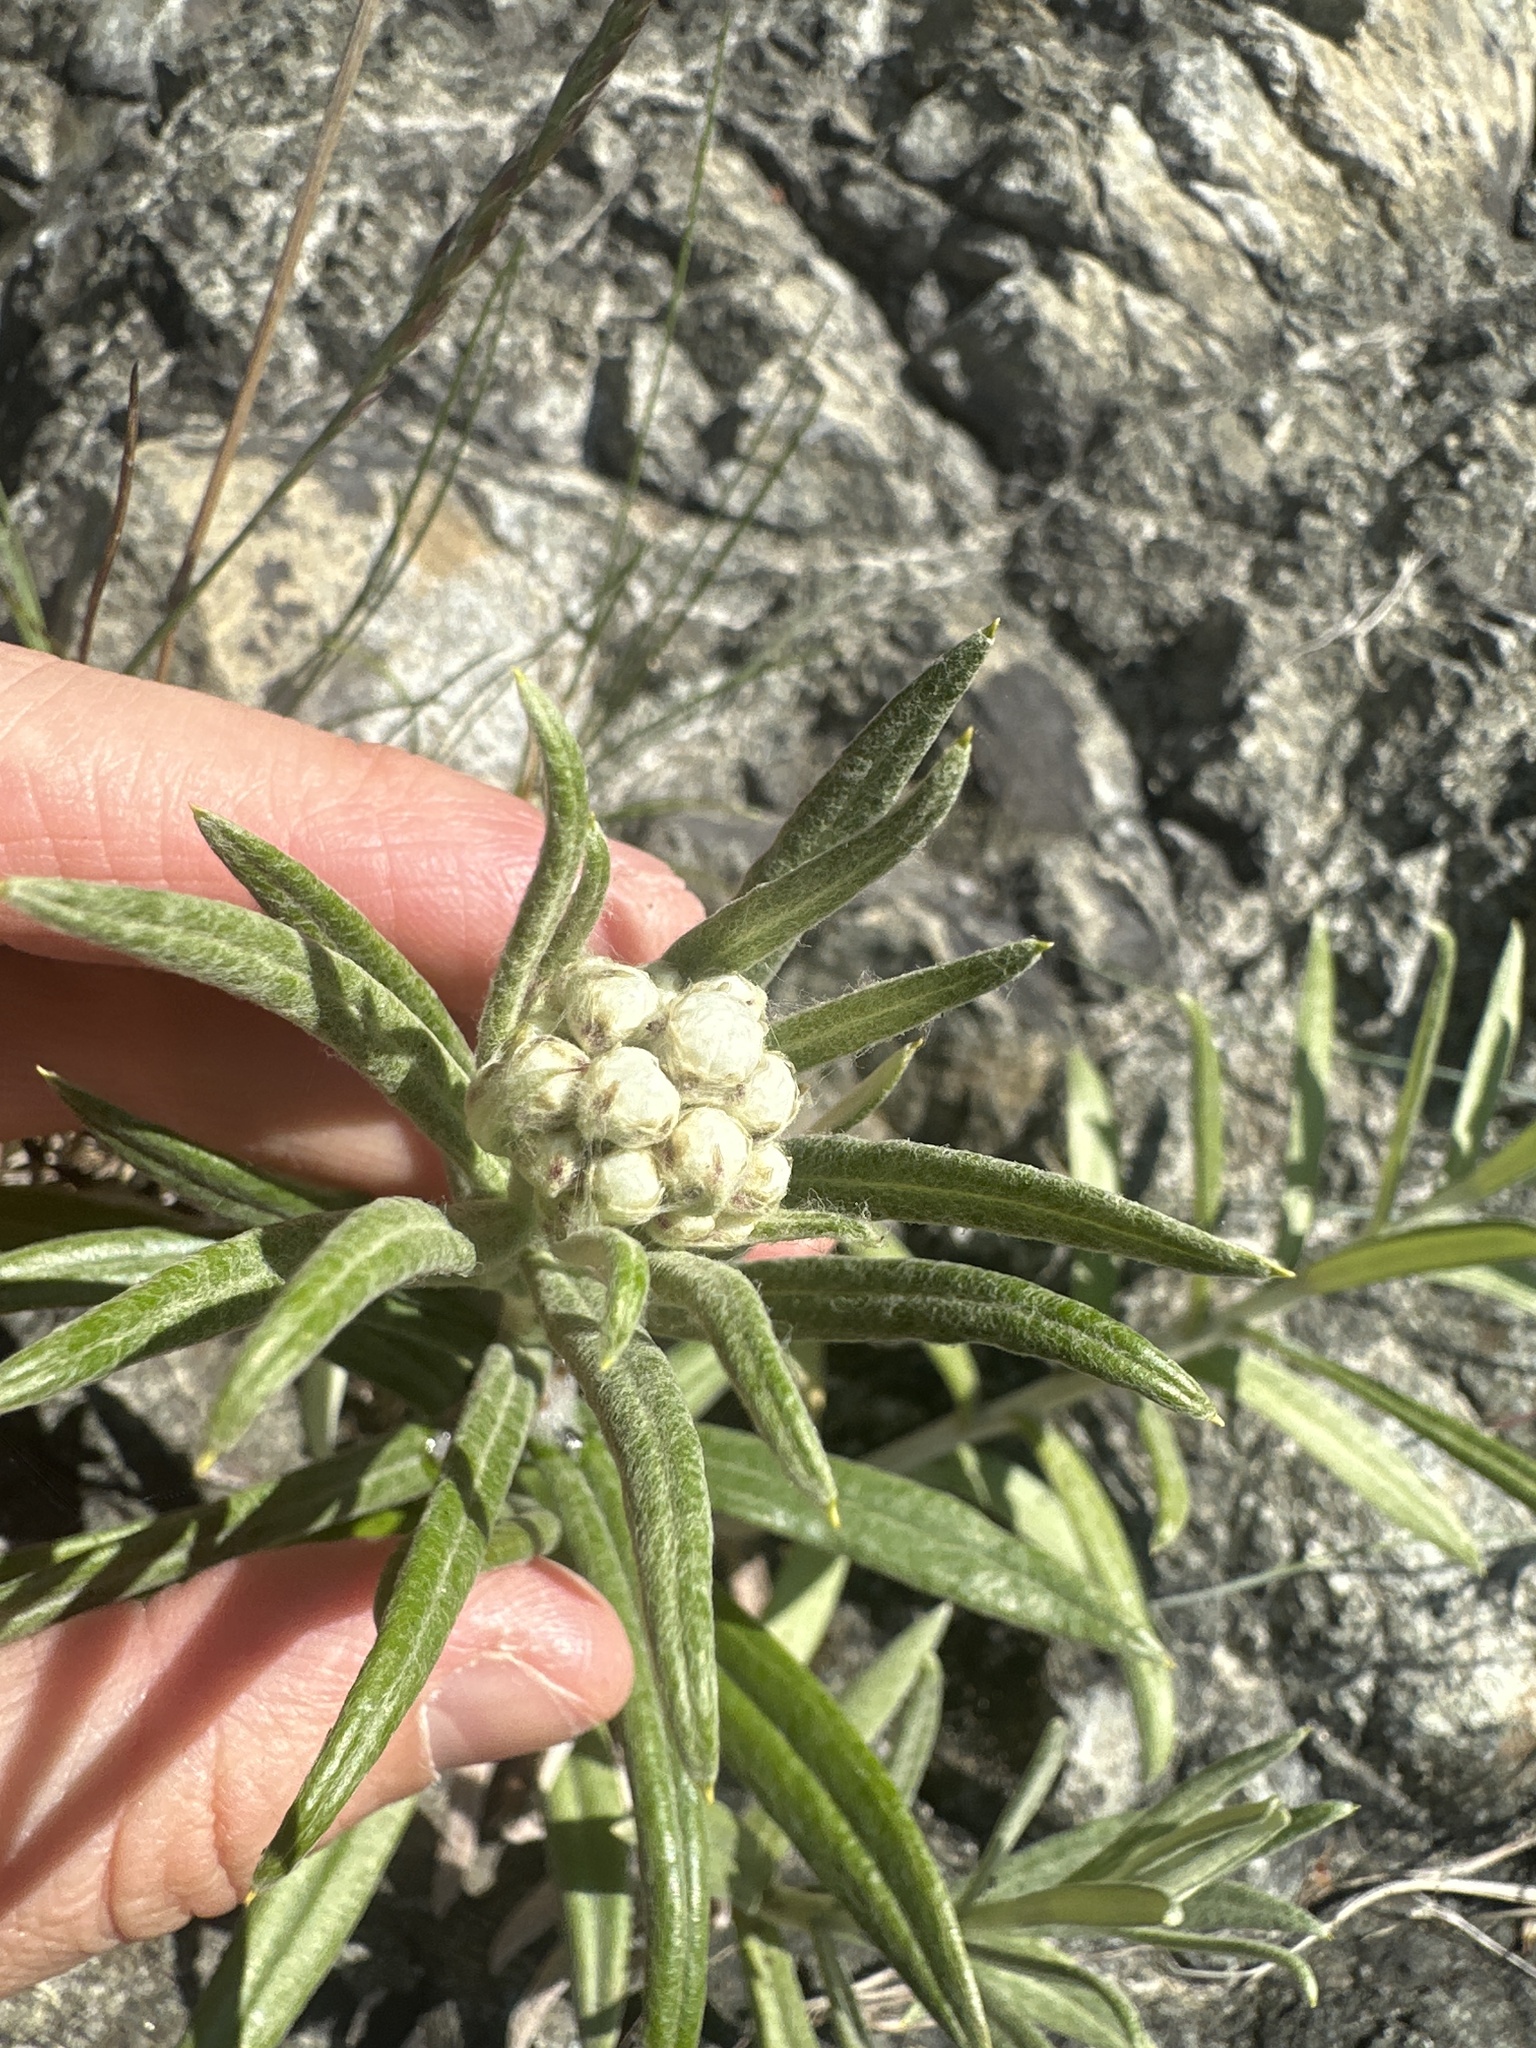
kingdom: Plantae
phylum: Tracheophyta
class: Magnoliopsida
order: Asterales
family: Asteraceae
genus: Anaphalis
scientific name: Anaphalis margaritacea
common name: Pearly everlasting
